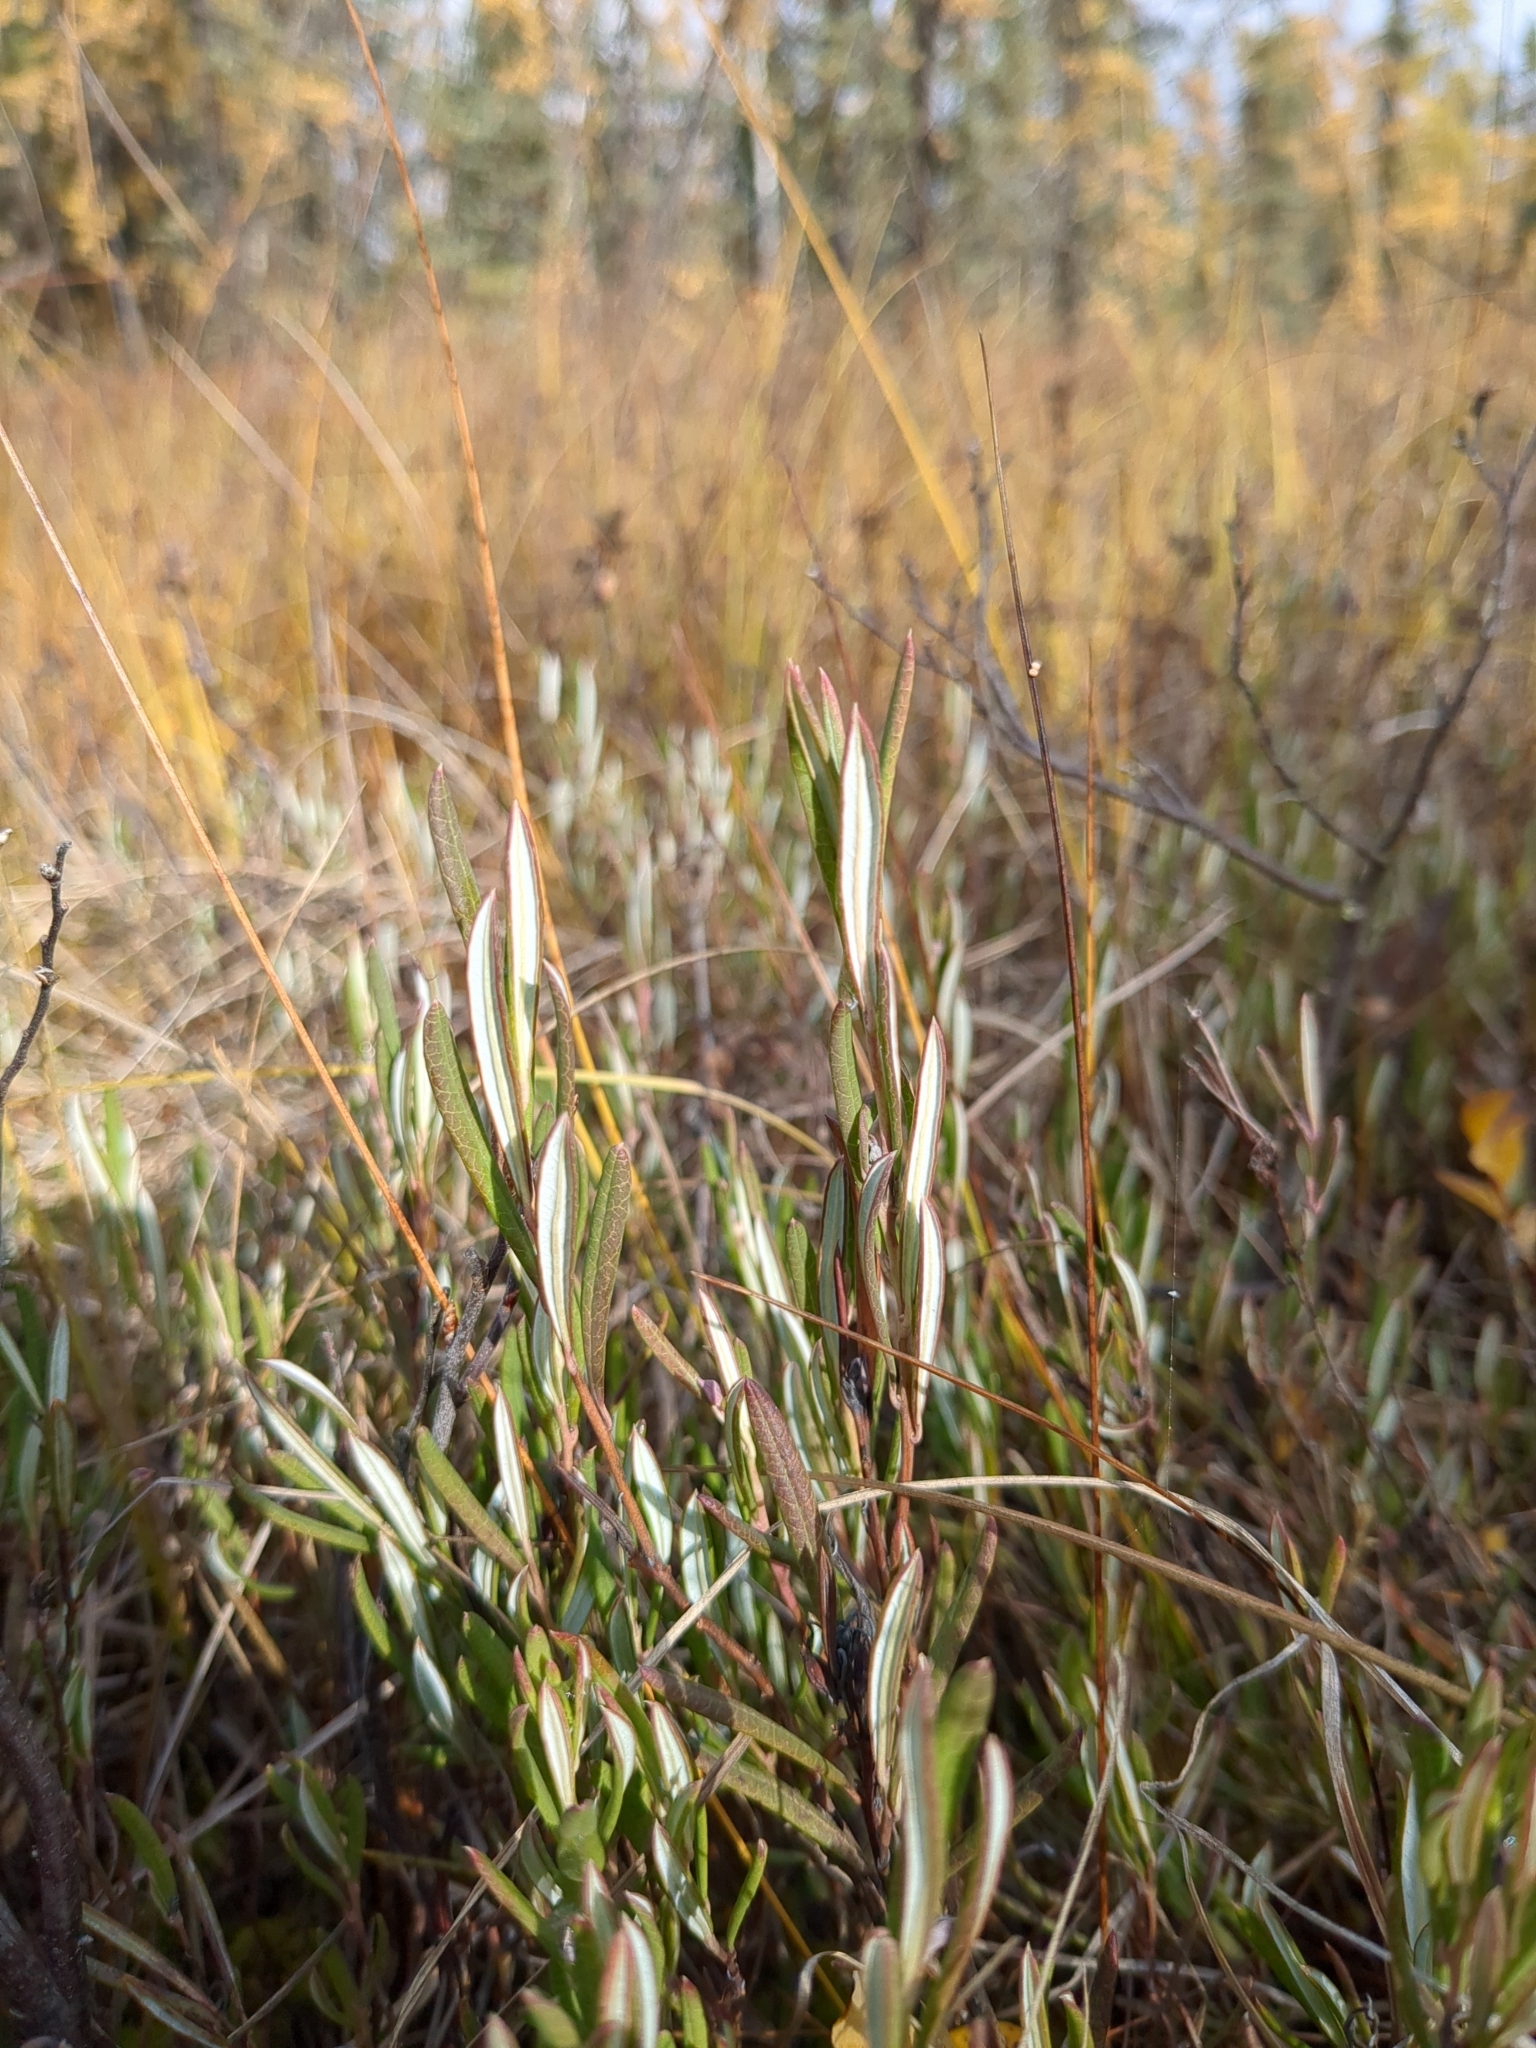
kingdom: Plantae
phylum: Tracheophyta
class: Magnoliopsida
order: Ericales
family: Ericaceae
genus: Andromeda
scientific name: Andromeda polifolia
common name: Bog-rosemary
